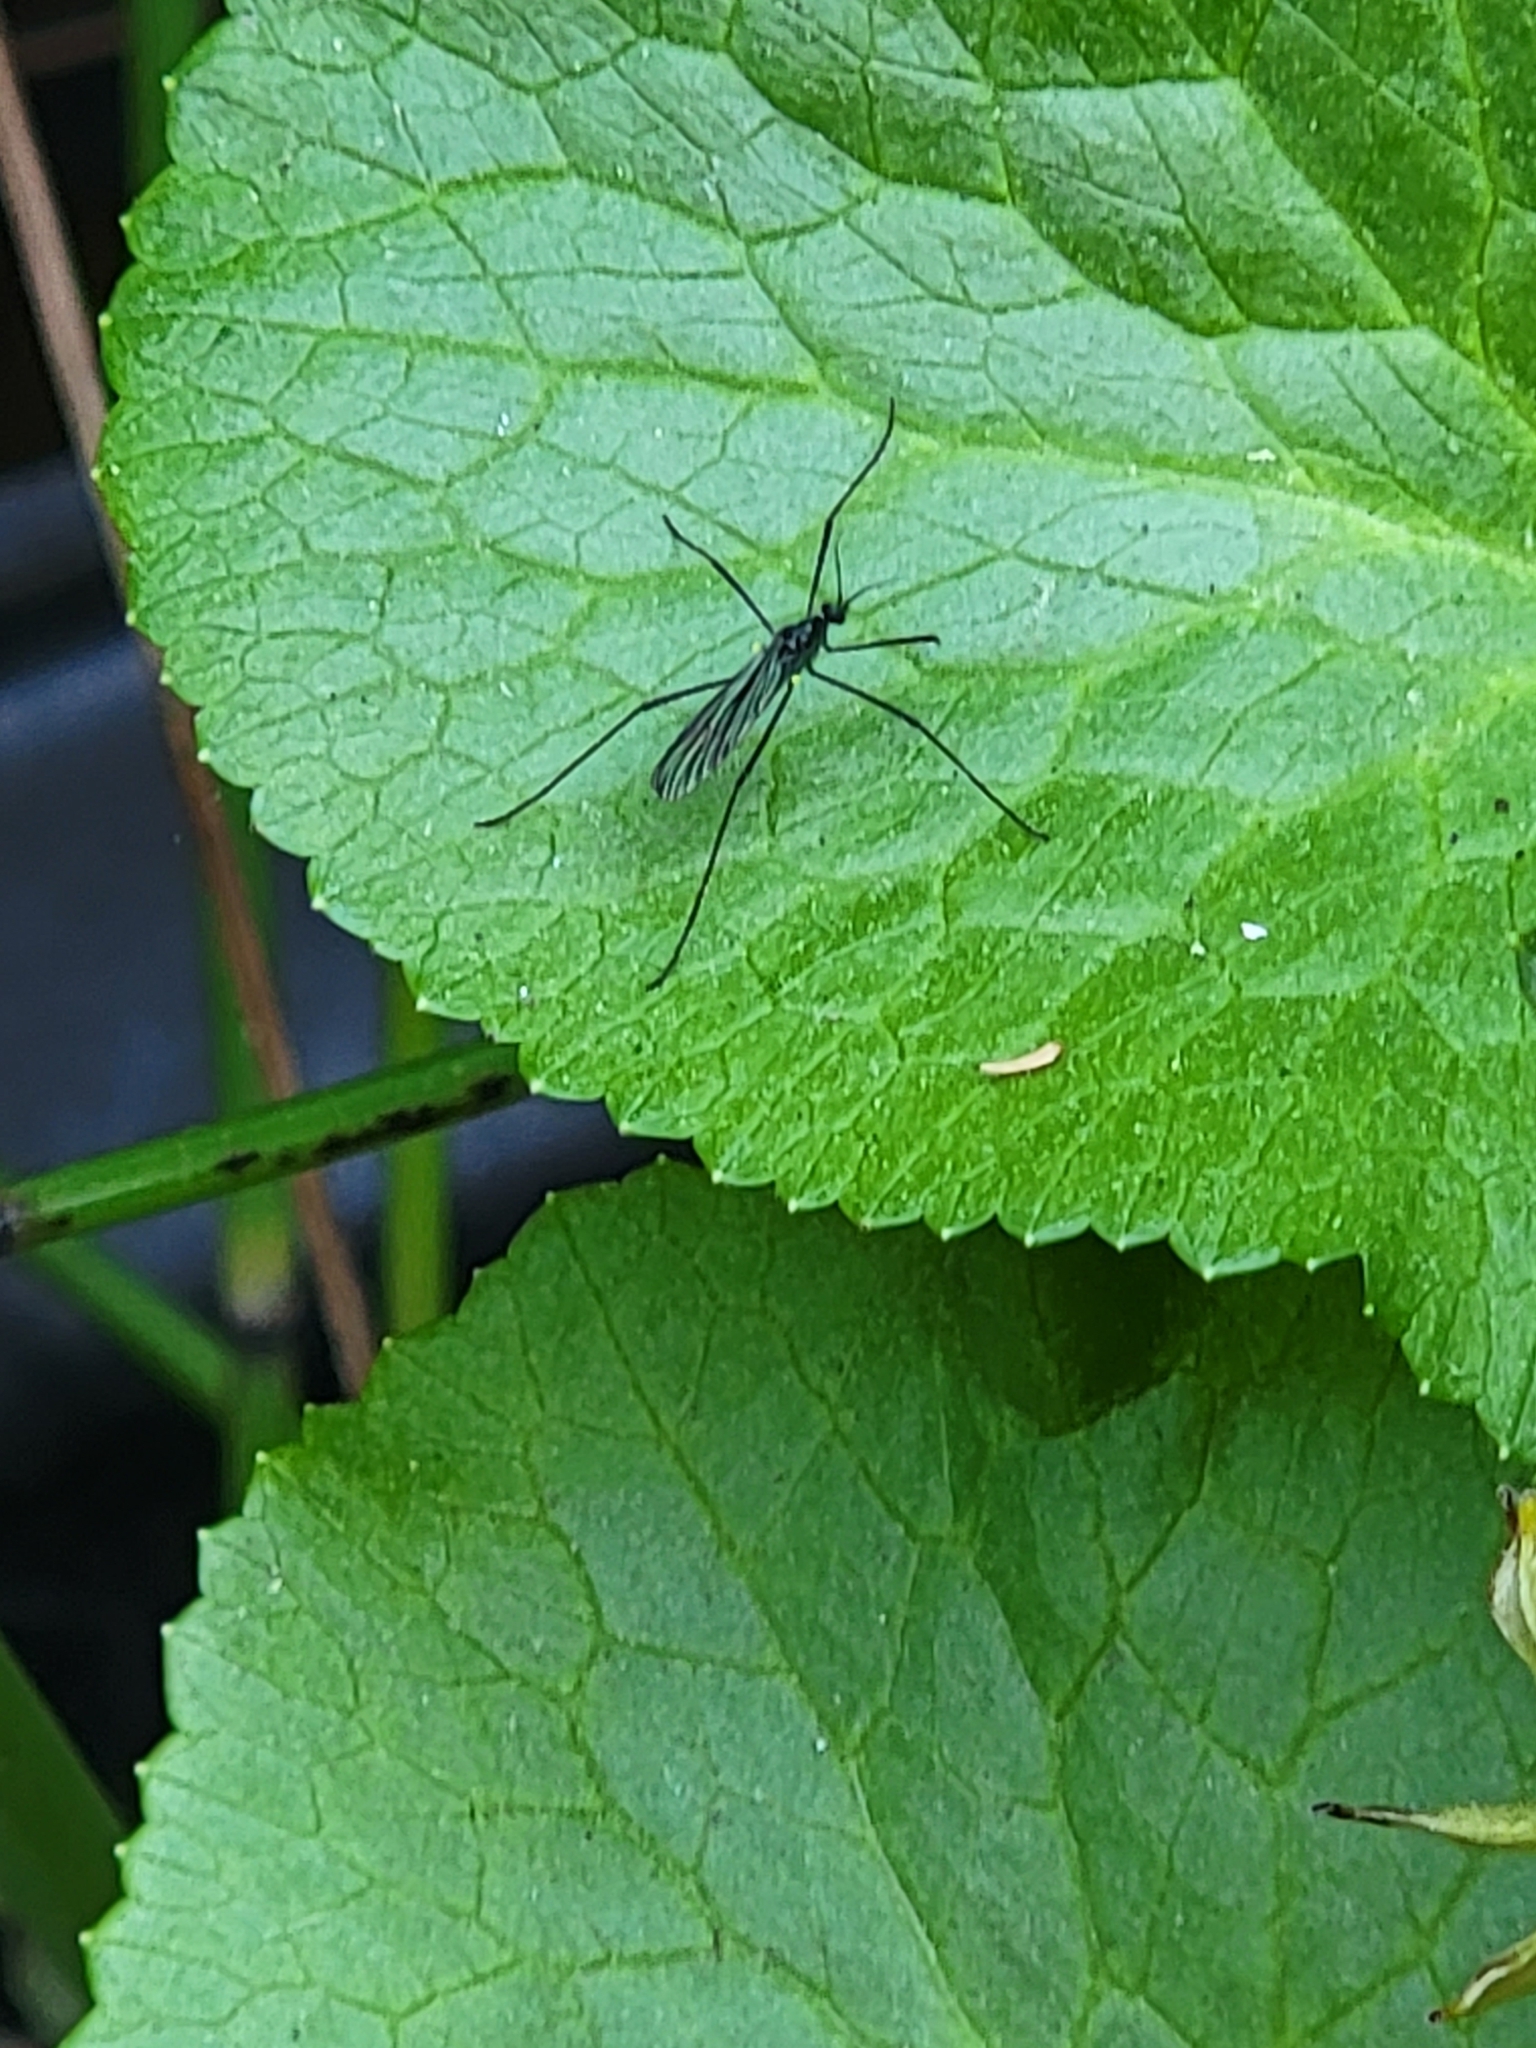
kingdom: Animalia
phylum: Arthropoda
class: Insecta
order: Diptera
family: Limoniidae
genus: Gnophomyia
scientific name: Gnophomyia tristissima
